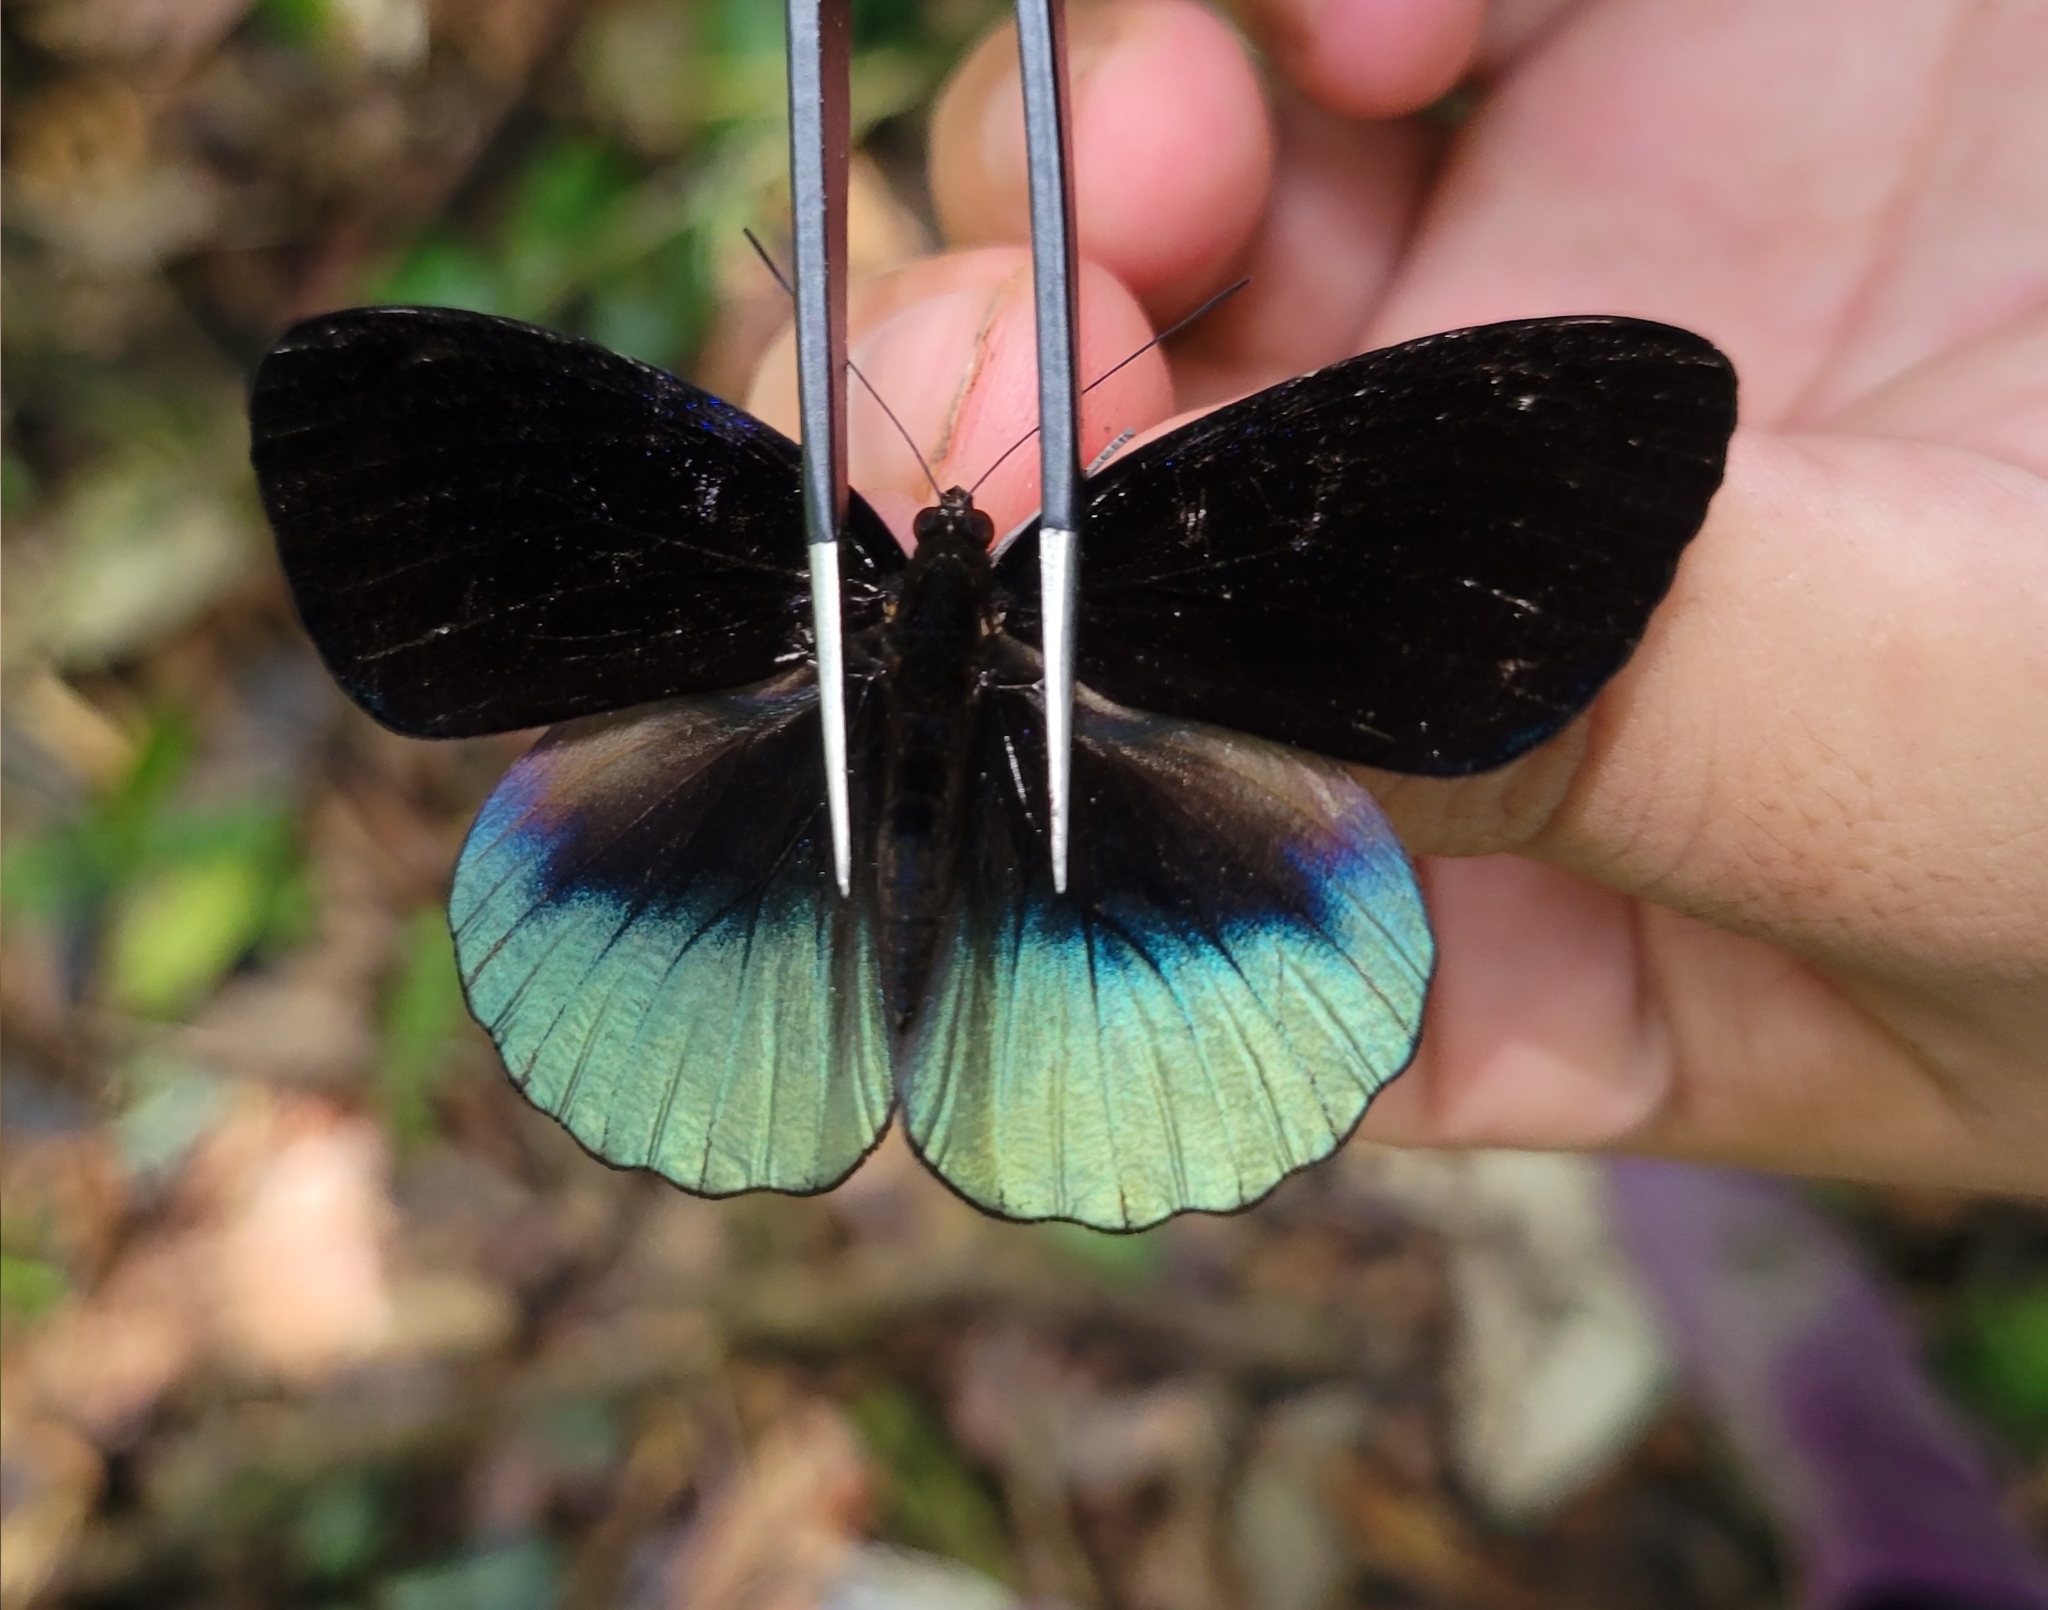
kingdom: Animalia
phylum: Arthropoda
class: Insecta
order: Lepidoptera
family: Nymphalidae
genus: Eunica
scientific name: Eunica chlororhoa
